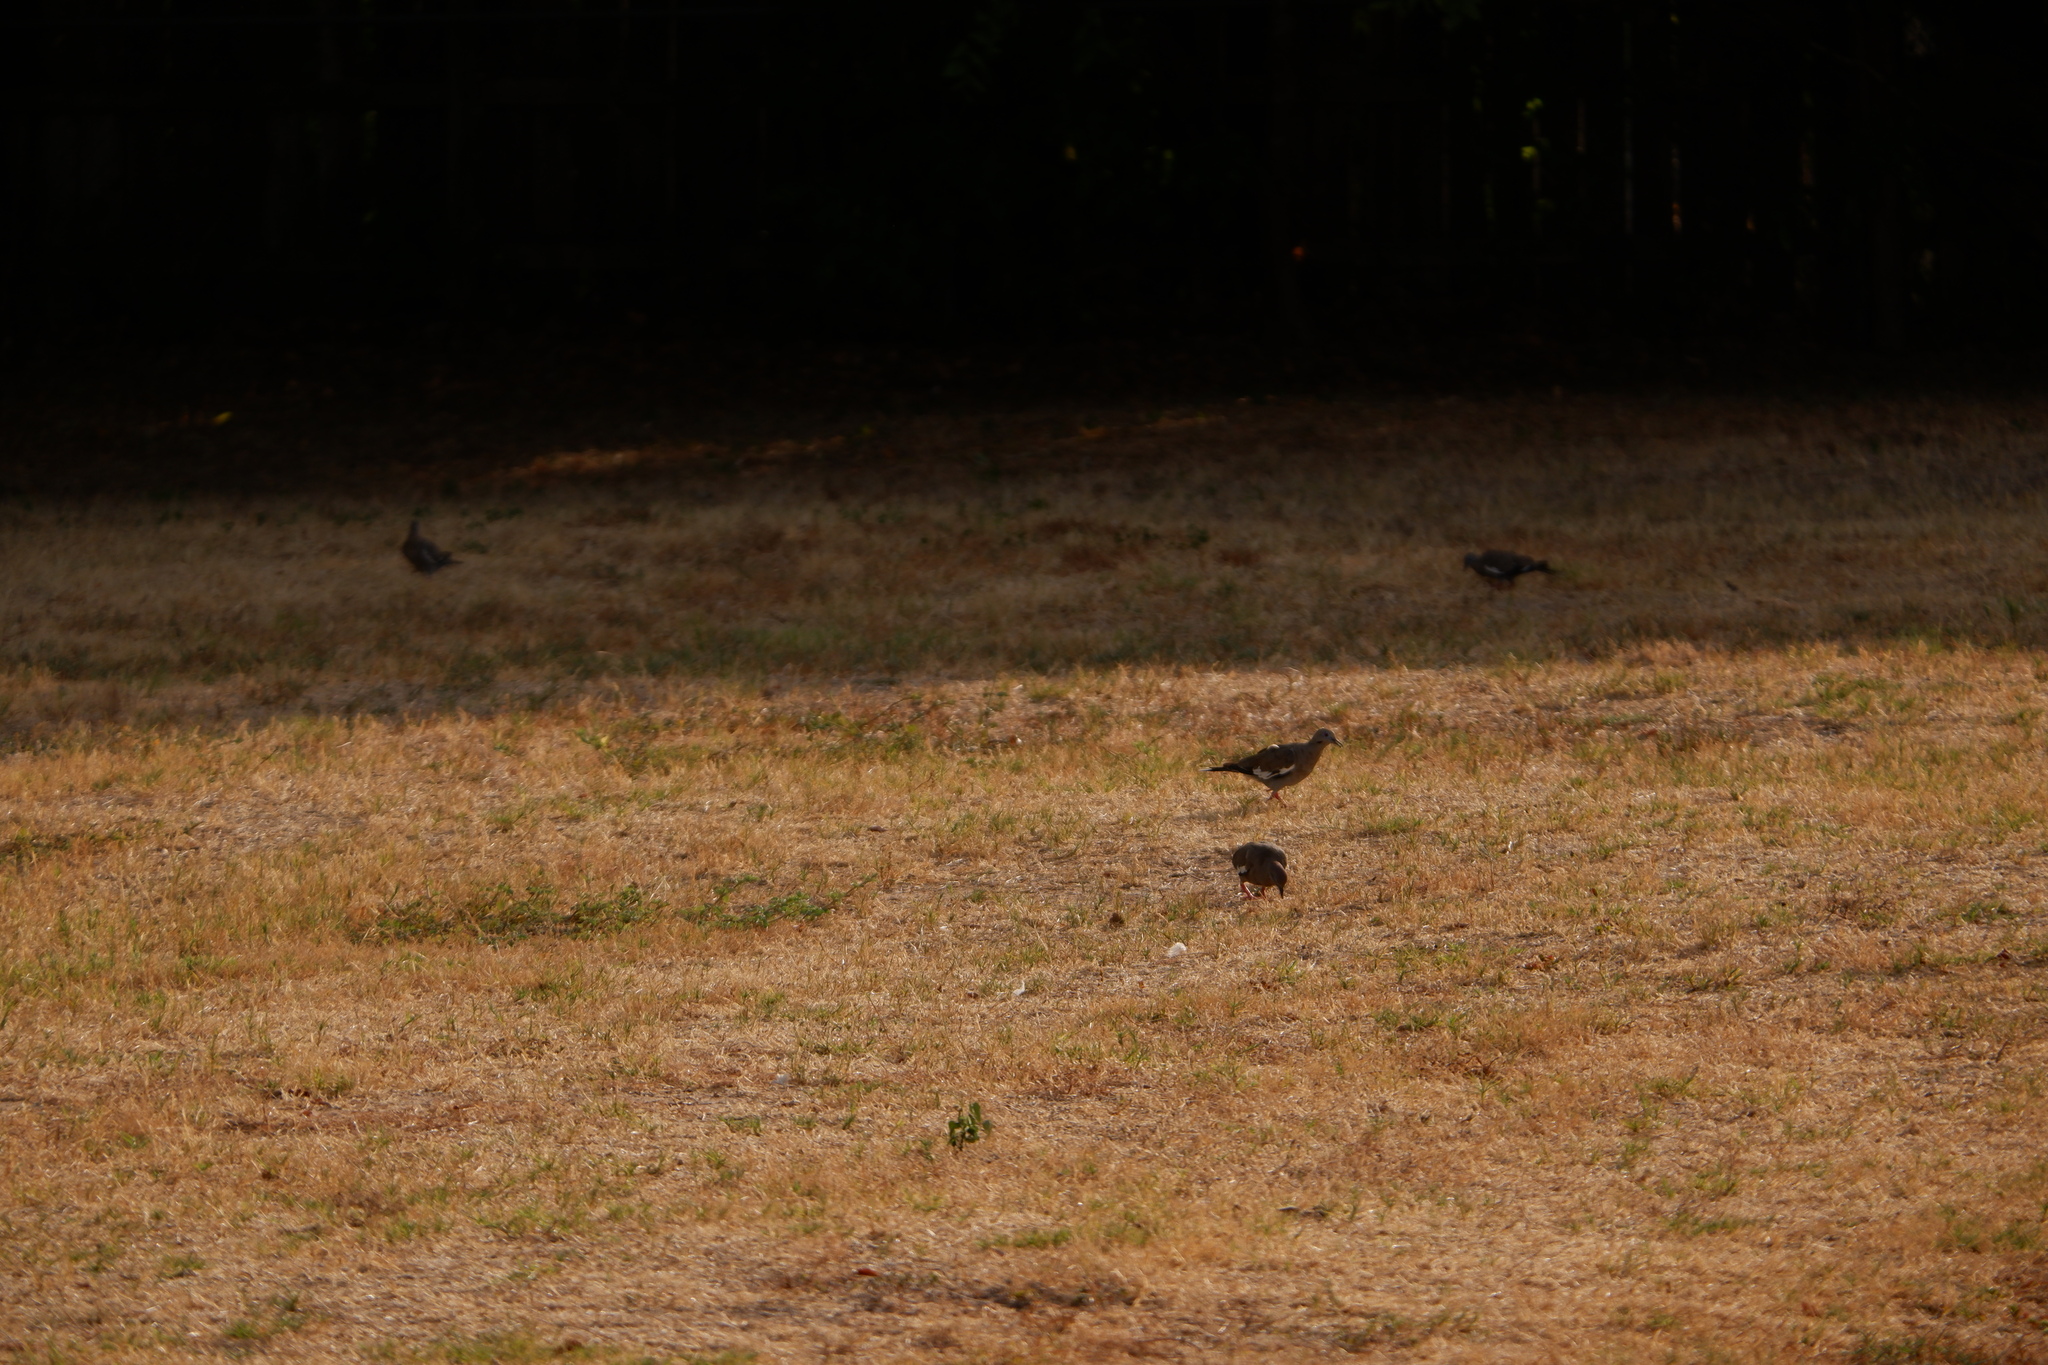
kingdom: Animalia
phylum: Chordata
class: Aves
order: Columbiformes
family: Columbidae
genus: Zenaida
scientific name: Zenaida asiatica
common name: White-winged dove
